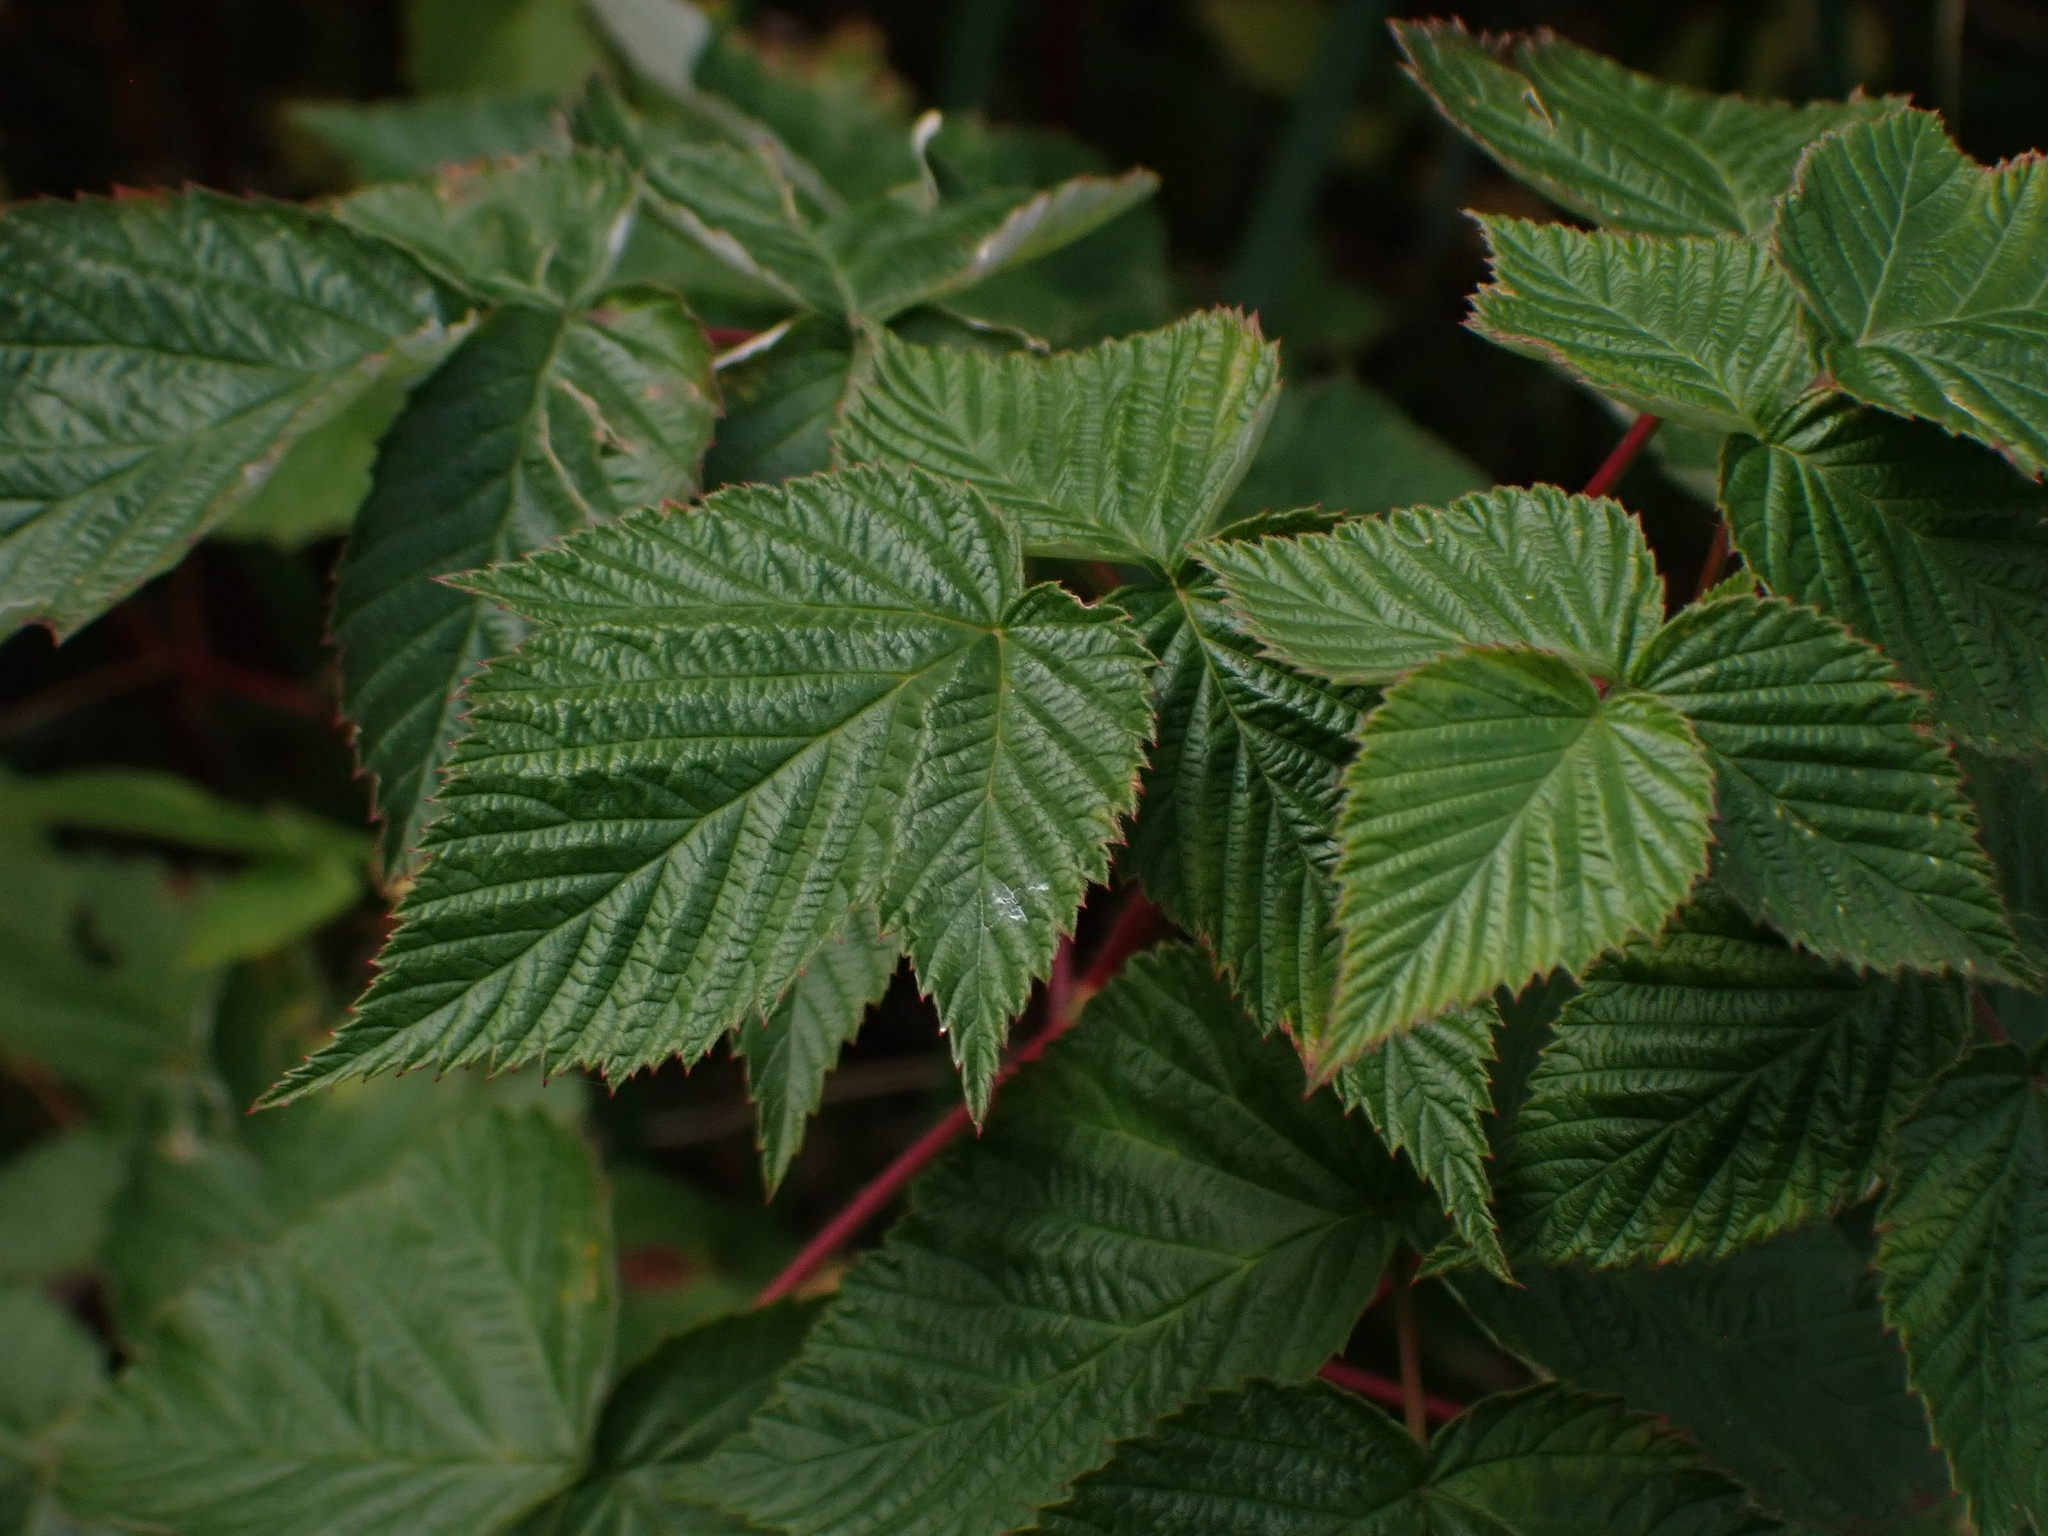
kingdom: Plantae
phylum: Tracheophyta
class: Magnoliopsida
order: Rosales
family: Rosaceae
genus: Rubus
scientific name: Rubus idaeus
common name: Raspberry
